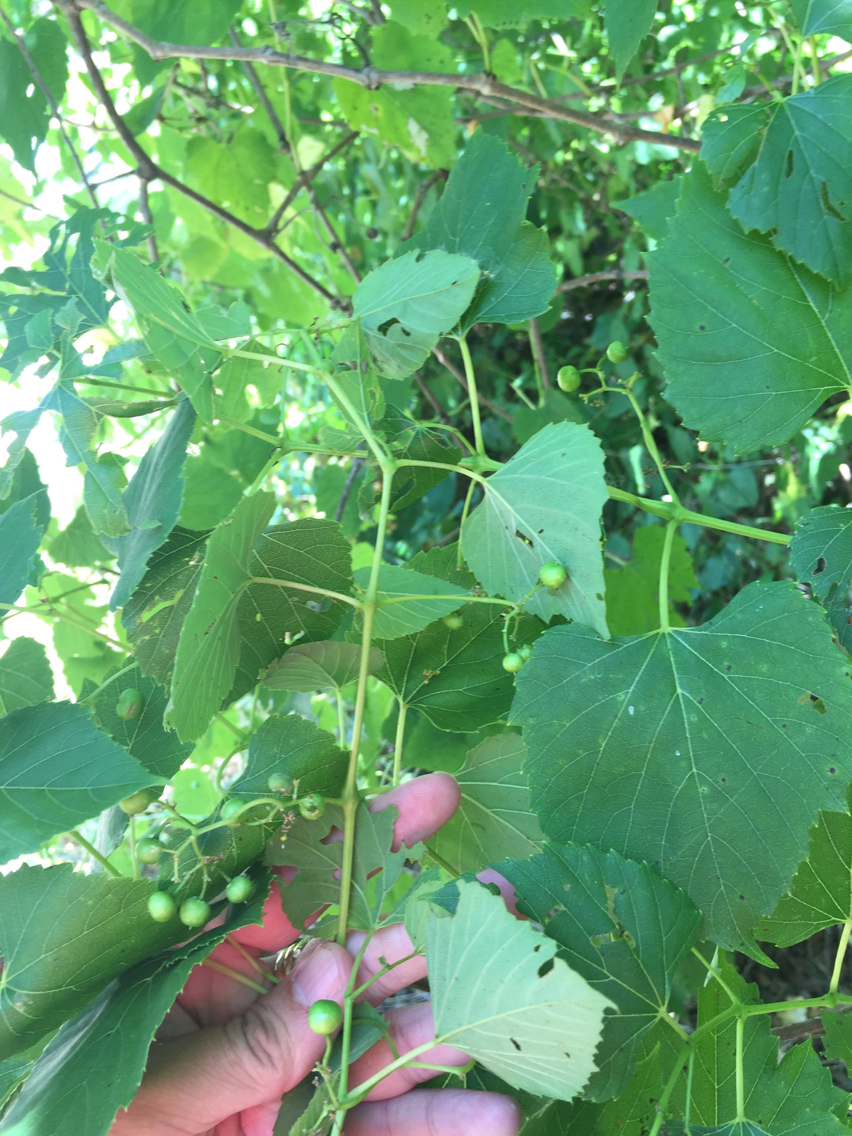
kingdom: Plantae
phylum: Tracheophyta
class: Magnoliopsida
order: Vitales
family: Vitaceae
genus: Ampelopsis
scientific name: Ampelopsis cordata
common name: Heart-leaf ampelopsis
